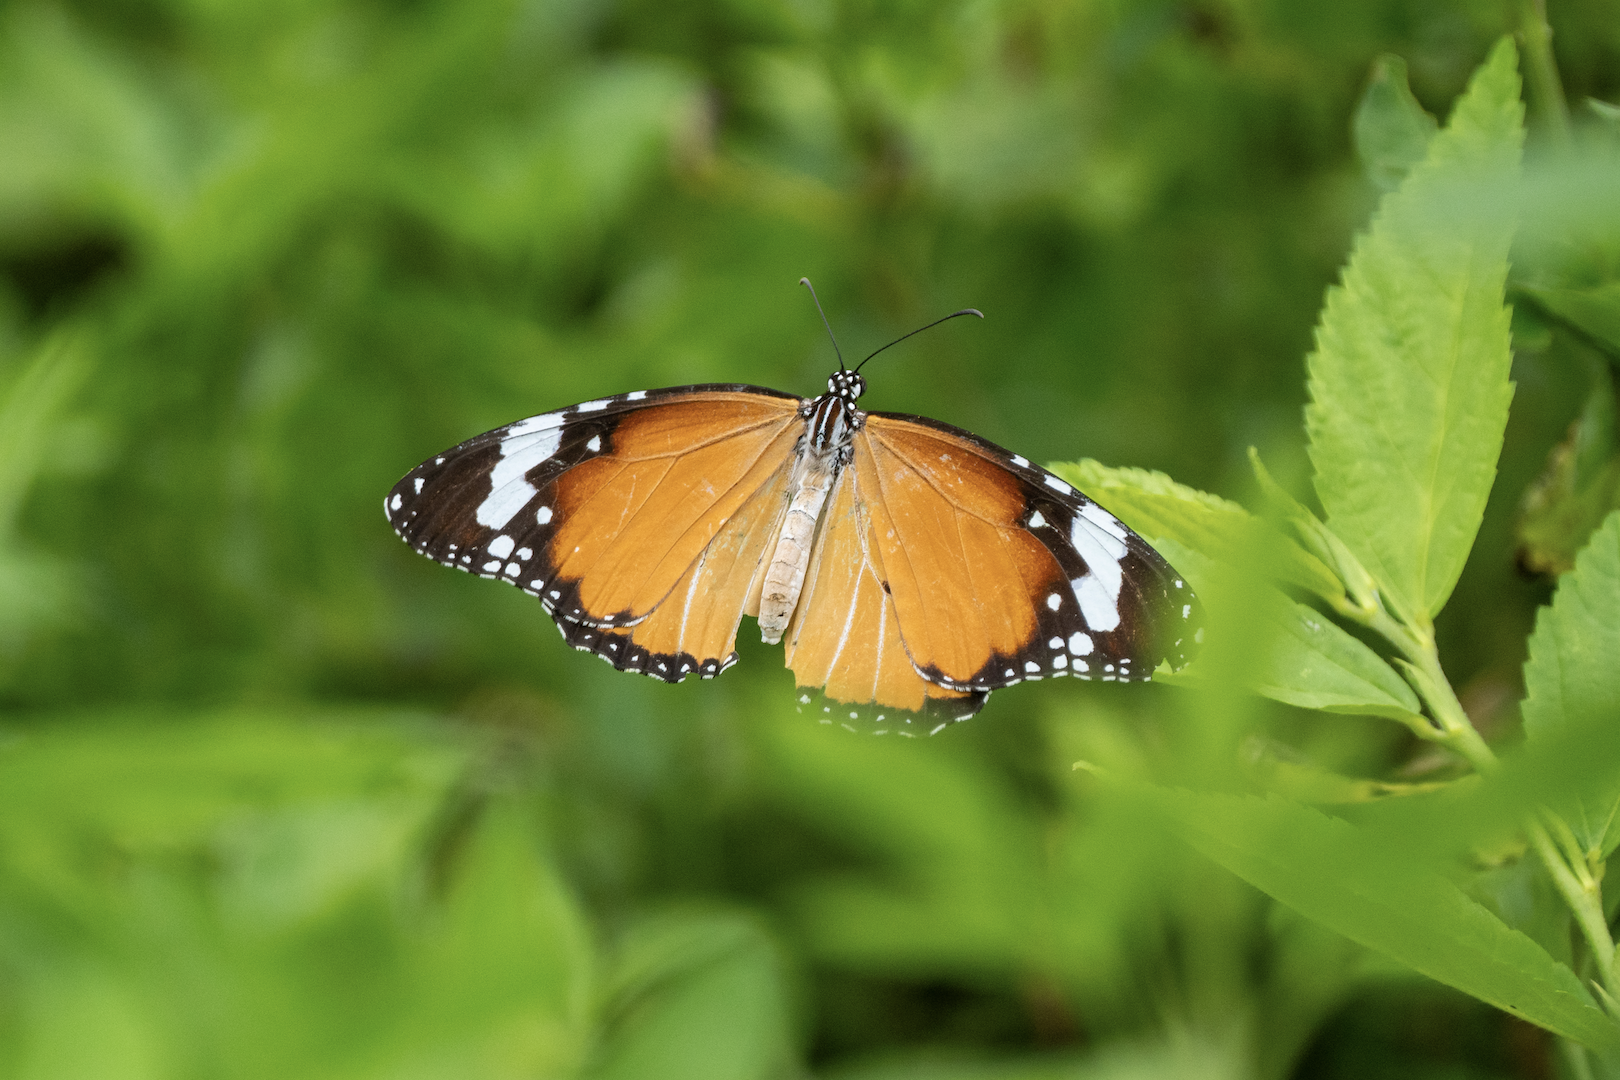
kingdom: Animalia
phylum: Arthropoda
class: Insecta
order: Lepidoptera
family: Nymphalidae
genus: Danaus
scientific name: Danaus chrysippus
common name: Plain tiger
